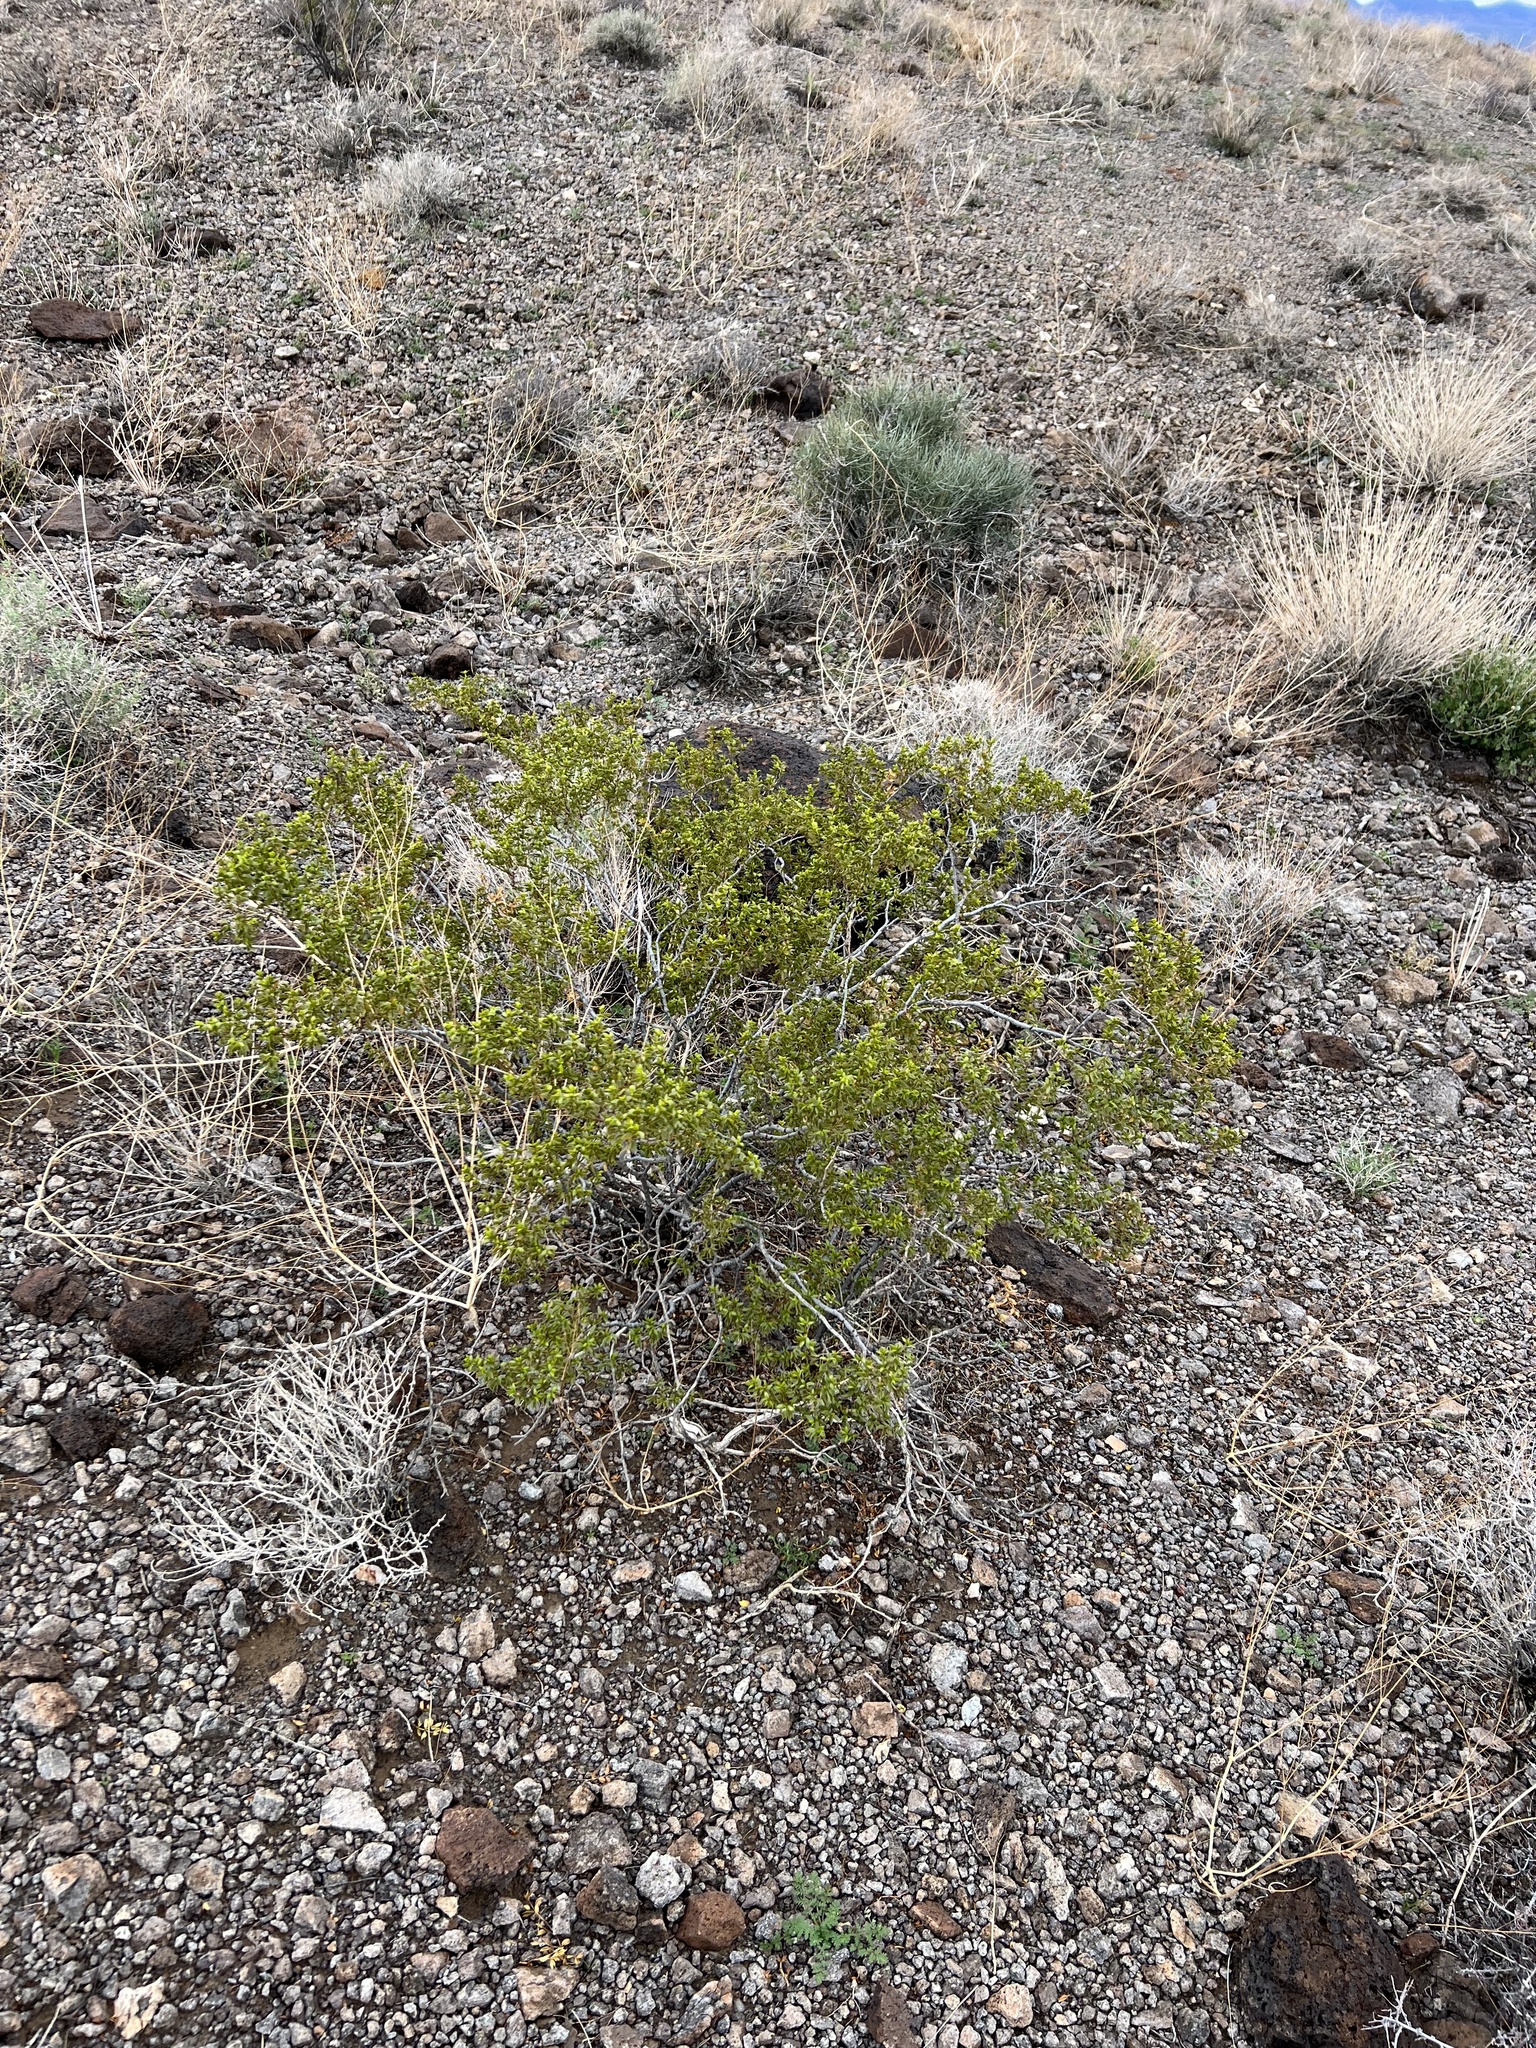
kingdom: Plantae
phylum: Tracheophyta
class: Magnoliopsida
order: Zygophyllales
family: Zygophyllaceae
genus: Larrea
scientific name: Larrea tridentata
